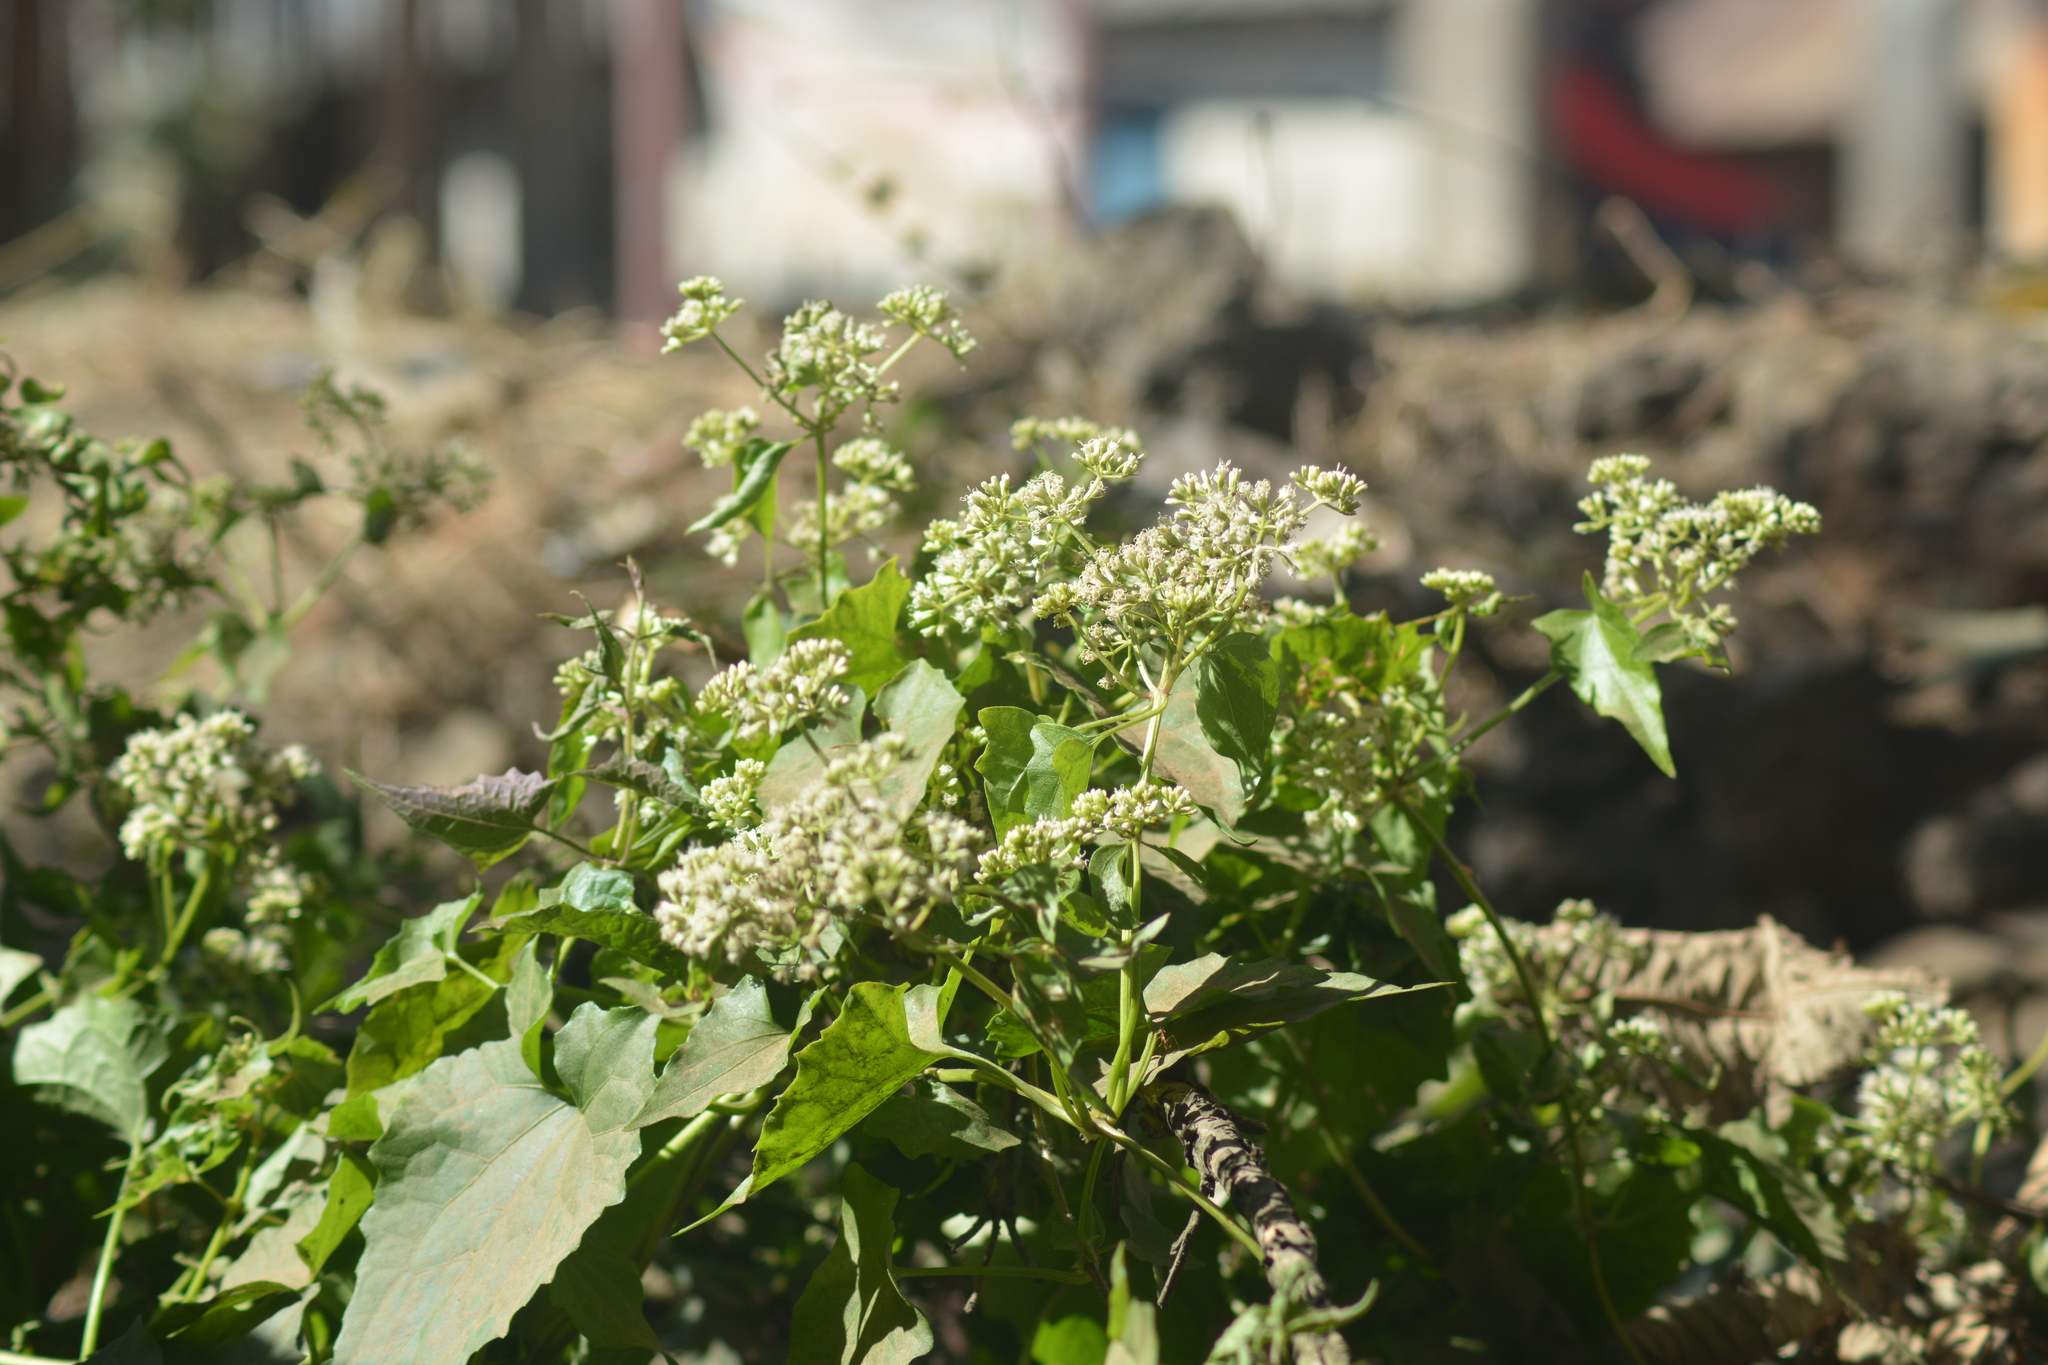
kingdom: Plantae
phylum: Tracheophyta
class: Magnoliopsida
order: Asterales
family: Asteraceae
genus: Mikania
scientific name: Mikania micrantha
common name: Mile-a-minute
